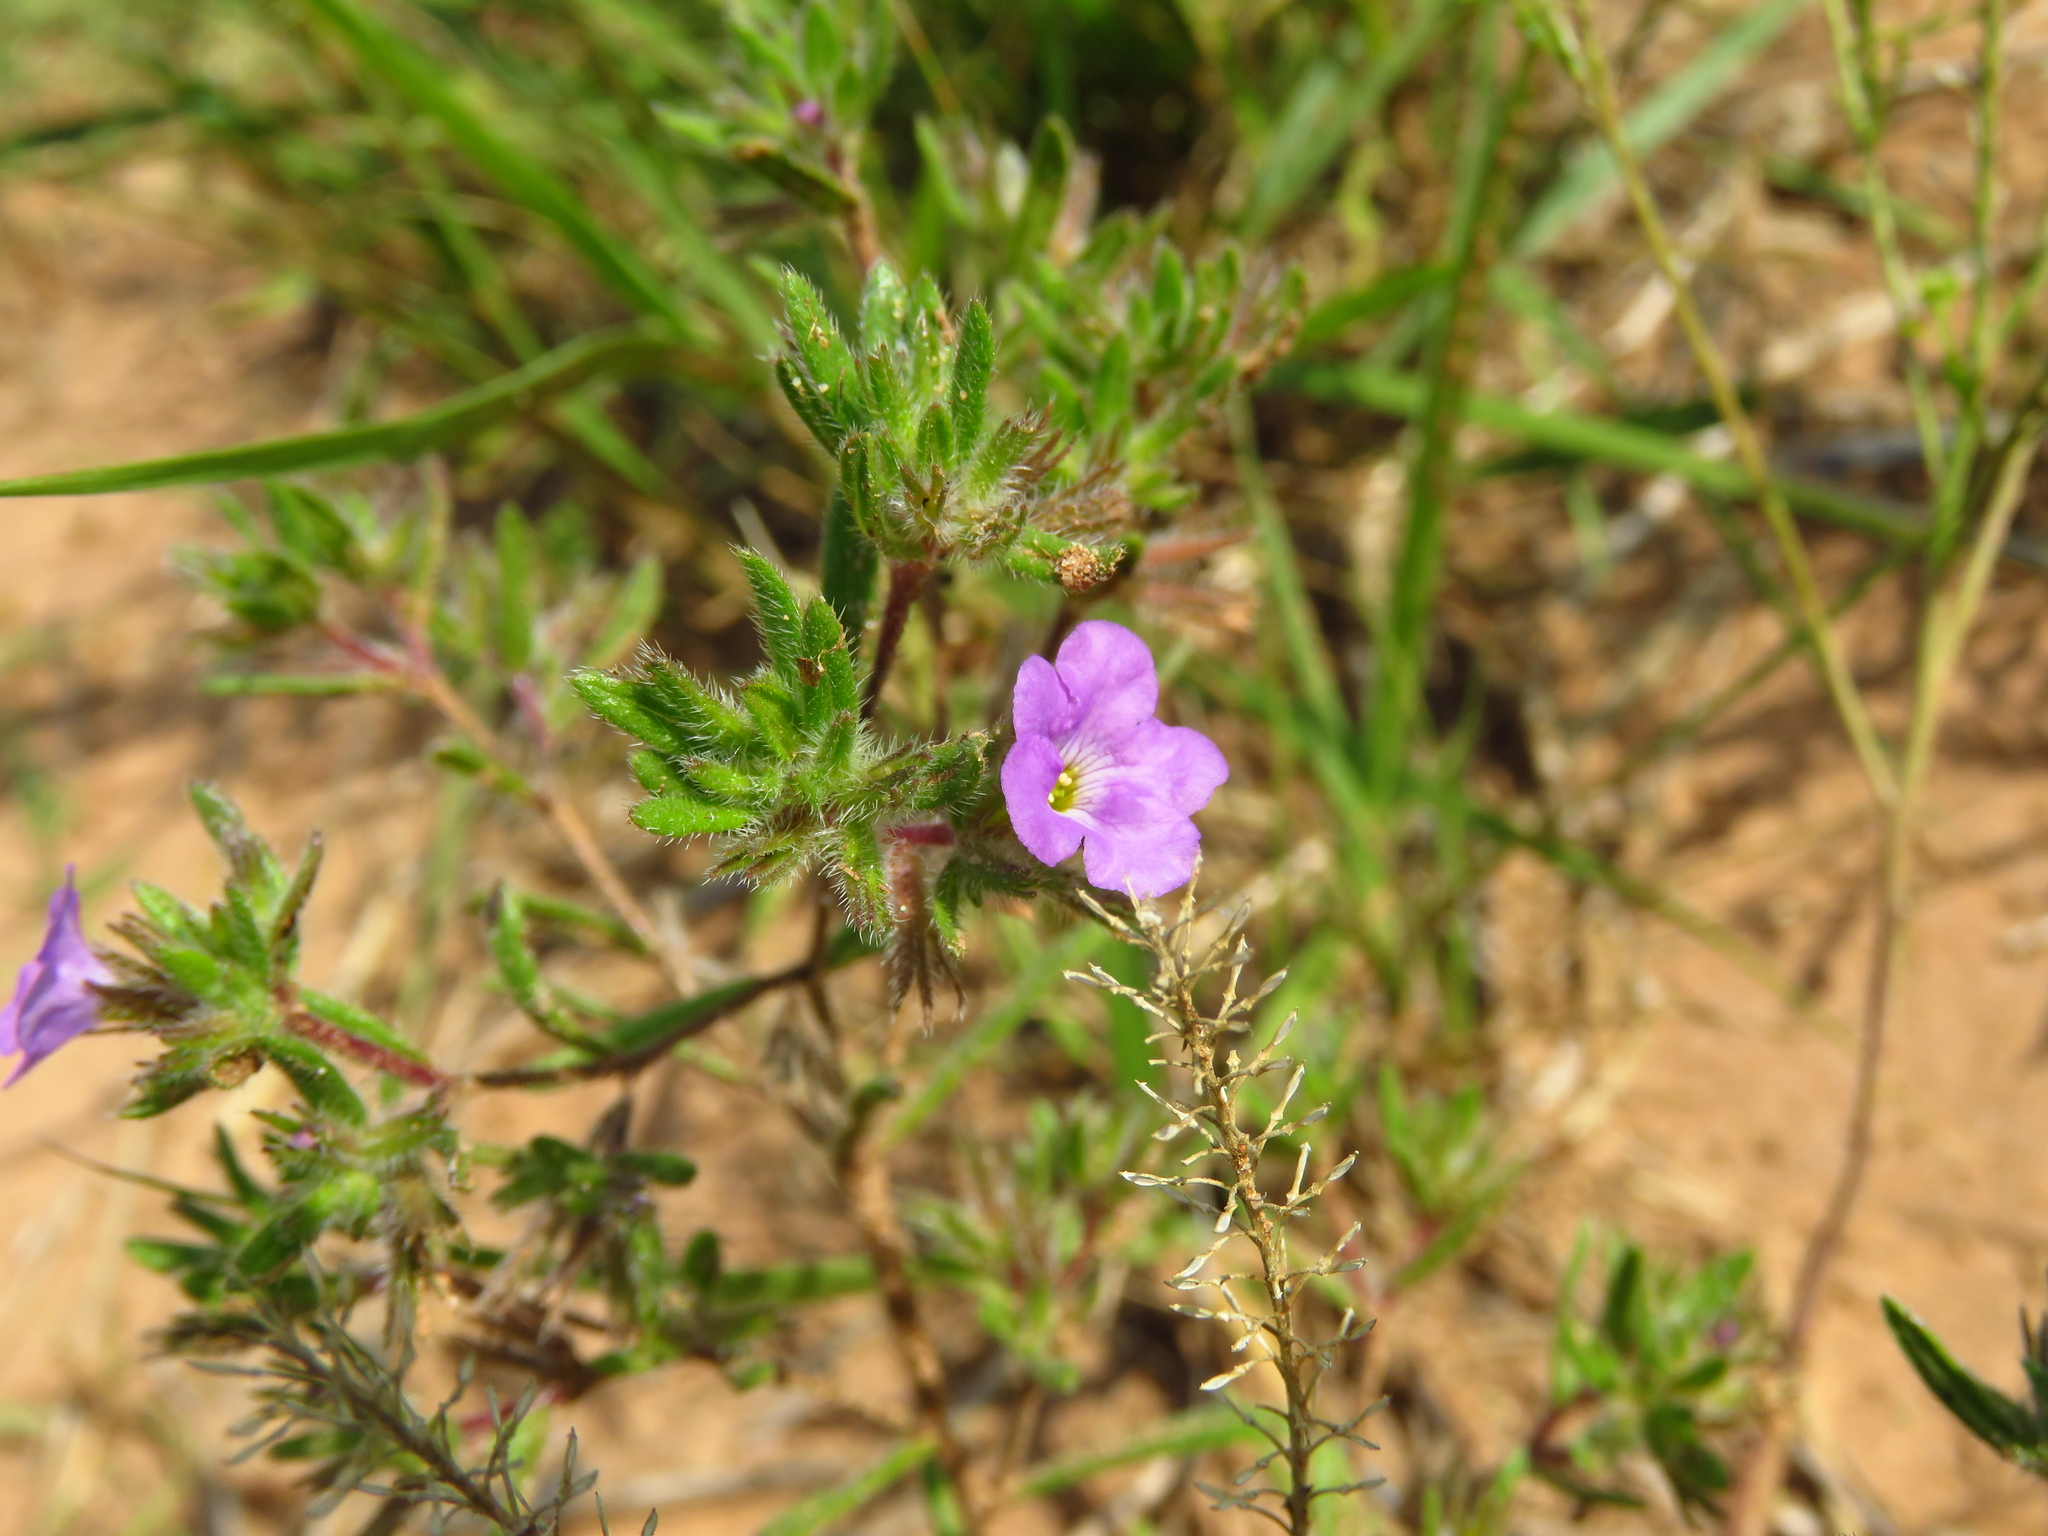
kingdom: Plantae
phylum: Tracheophyta
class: Magnoliopsida
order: Boraginales
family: Namaceae
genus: Nama
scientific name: Nama hispida
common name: Bristly nama
